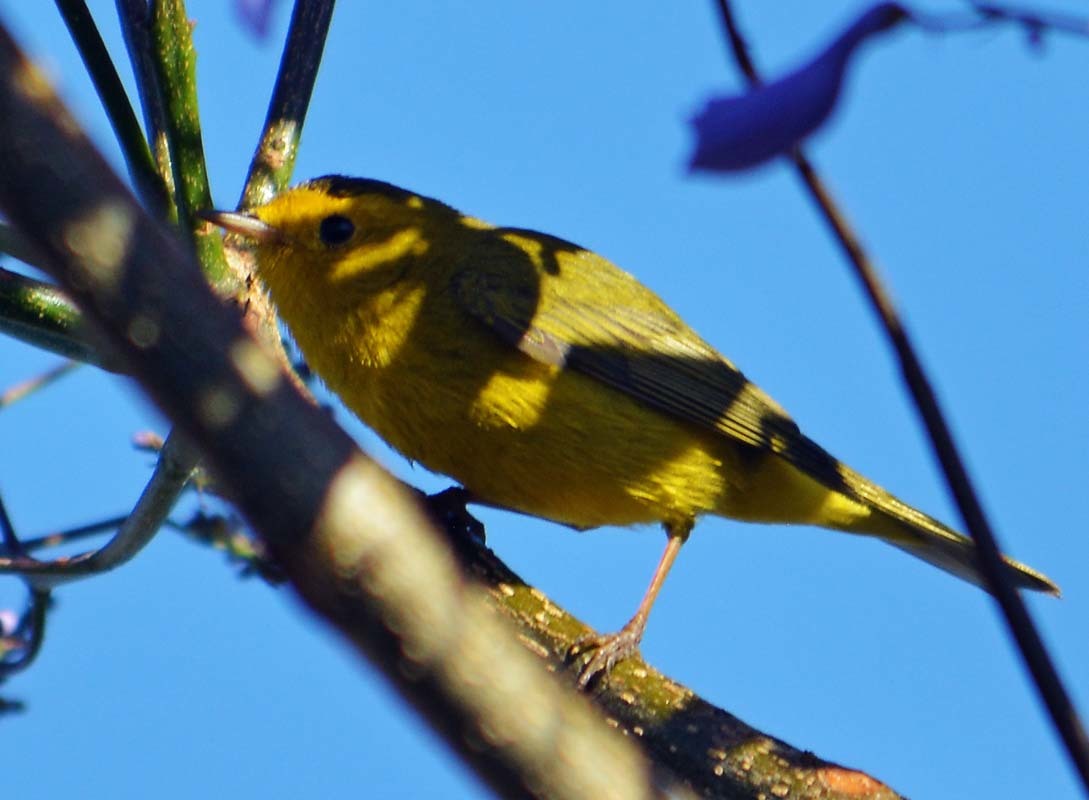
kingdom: Animalia
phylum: Chordata
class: Aves
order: Passeriformes
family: Parulidae
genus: Cardellina
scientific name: Cardellina pusilla
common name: Wilson's warbler
